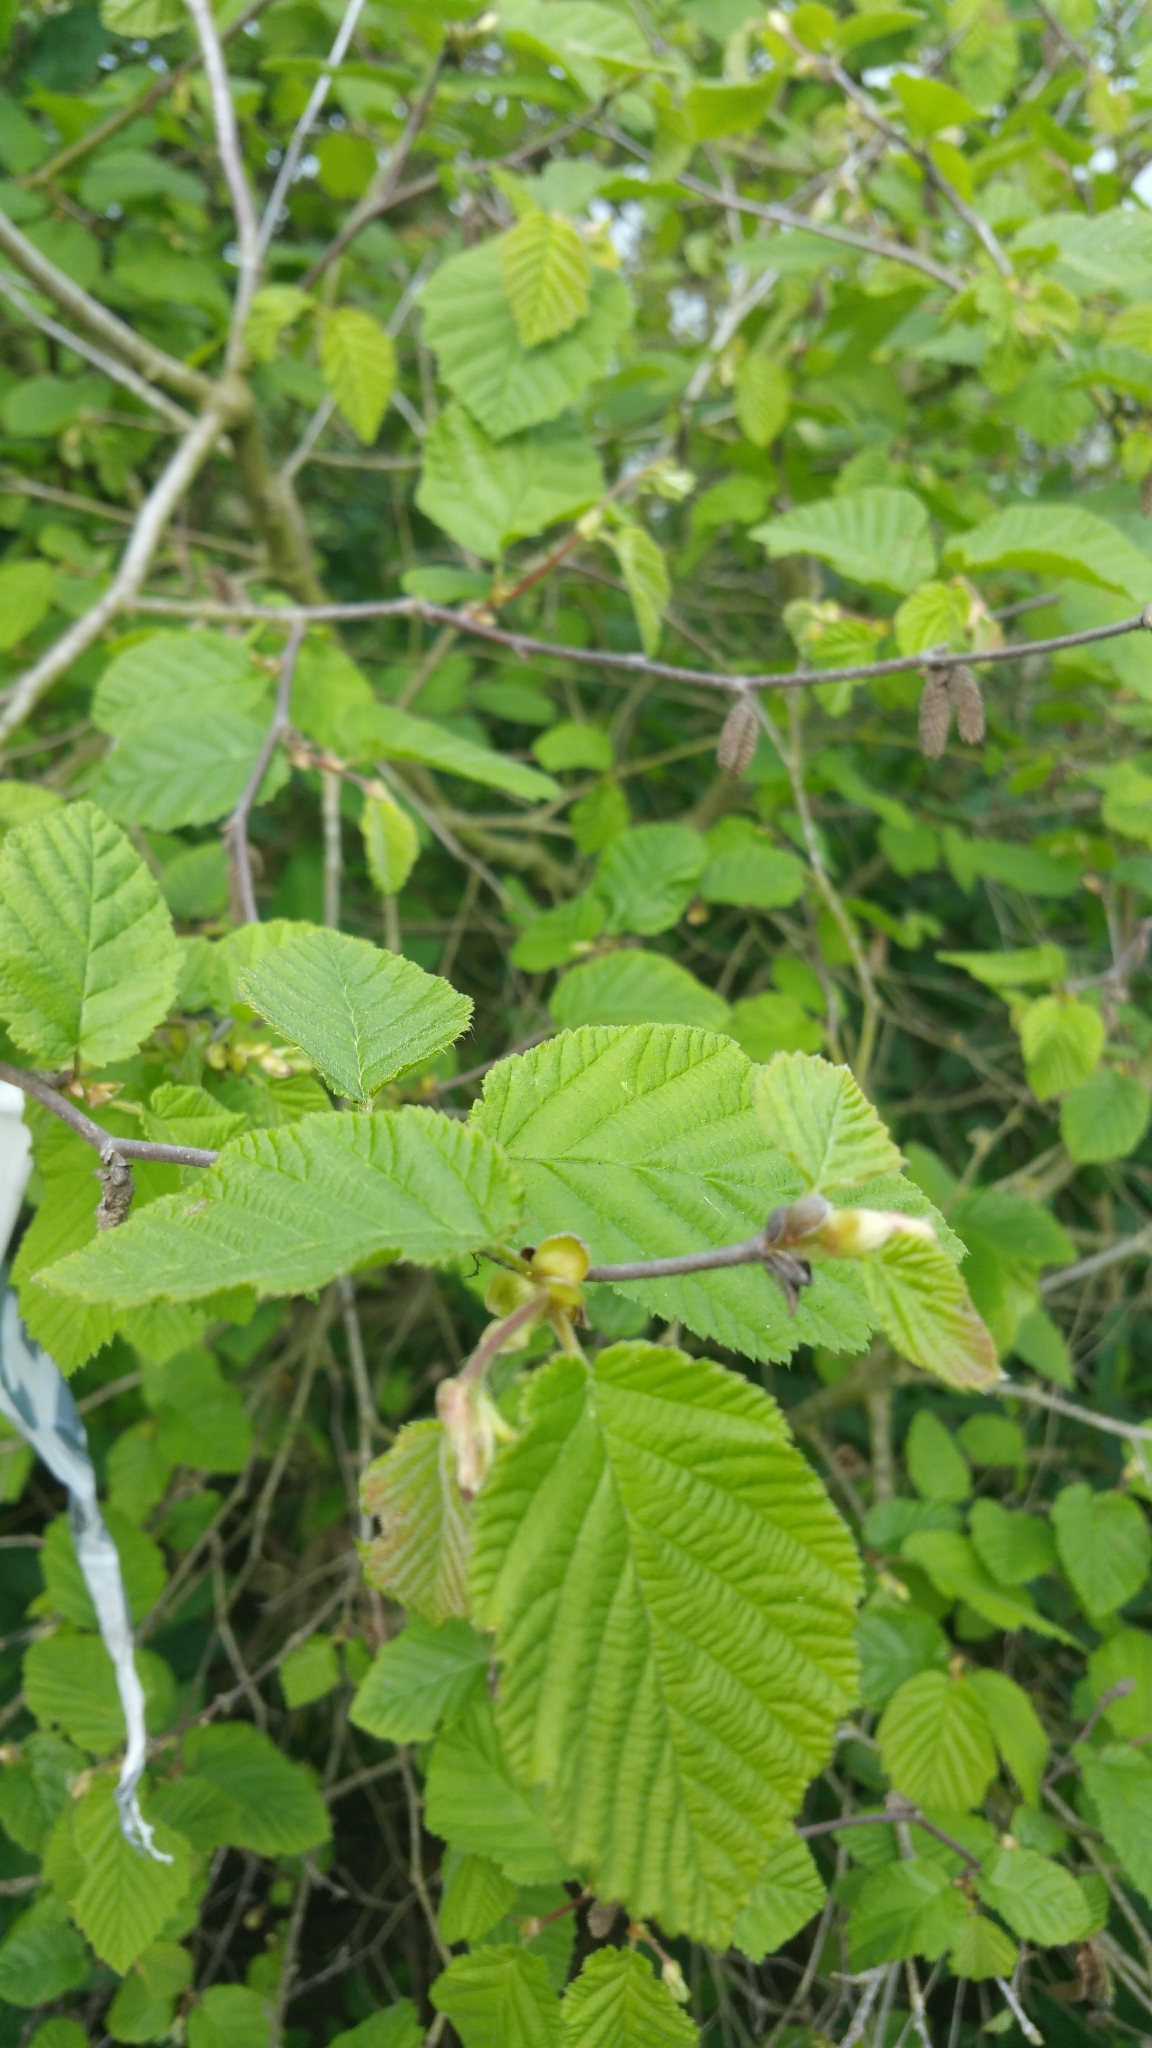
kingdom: Plantae
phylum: Tracheophyta
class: Magnoliopsida
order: Fagales
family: Betulaceae
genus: Corylus
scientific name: Corylus cornuta
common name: Beaked hazel
